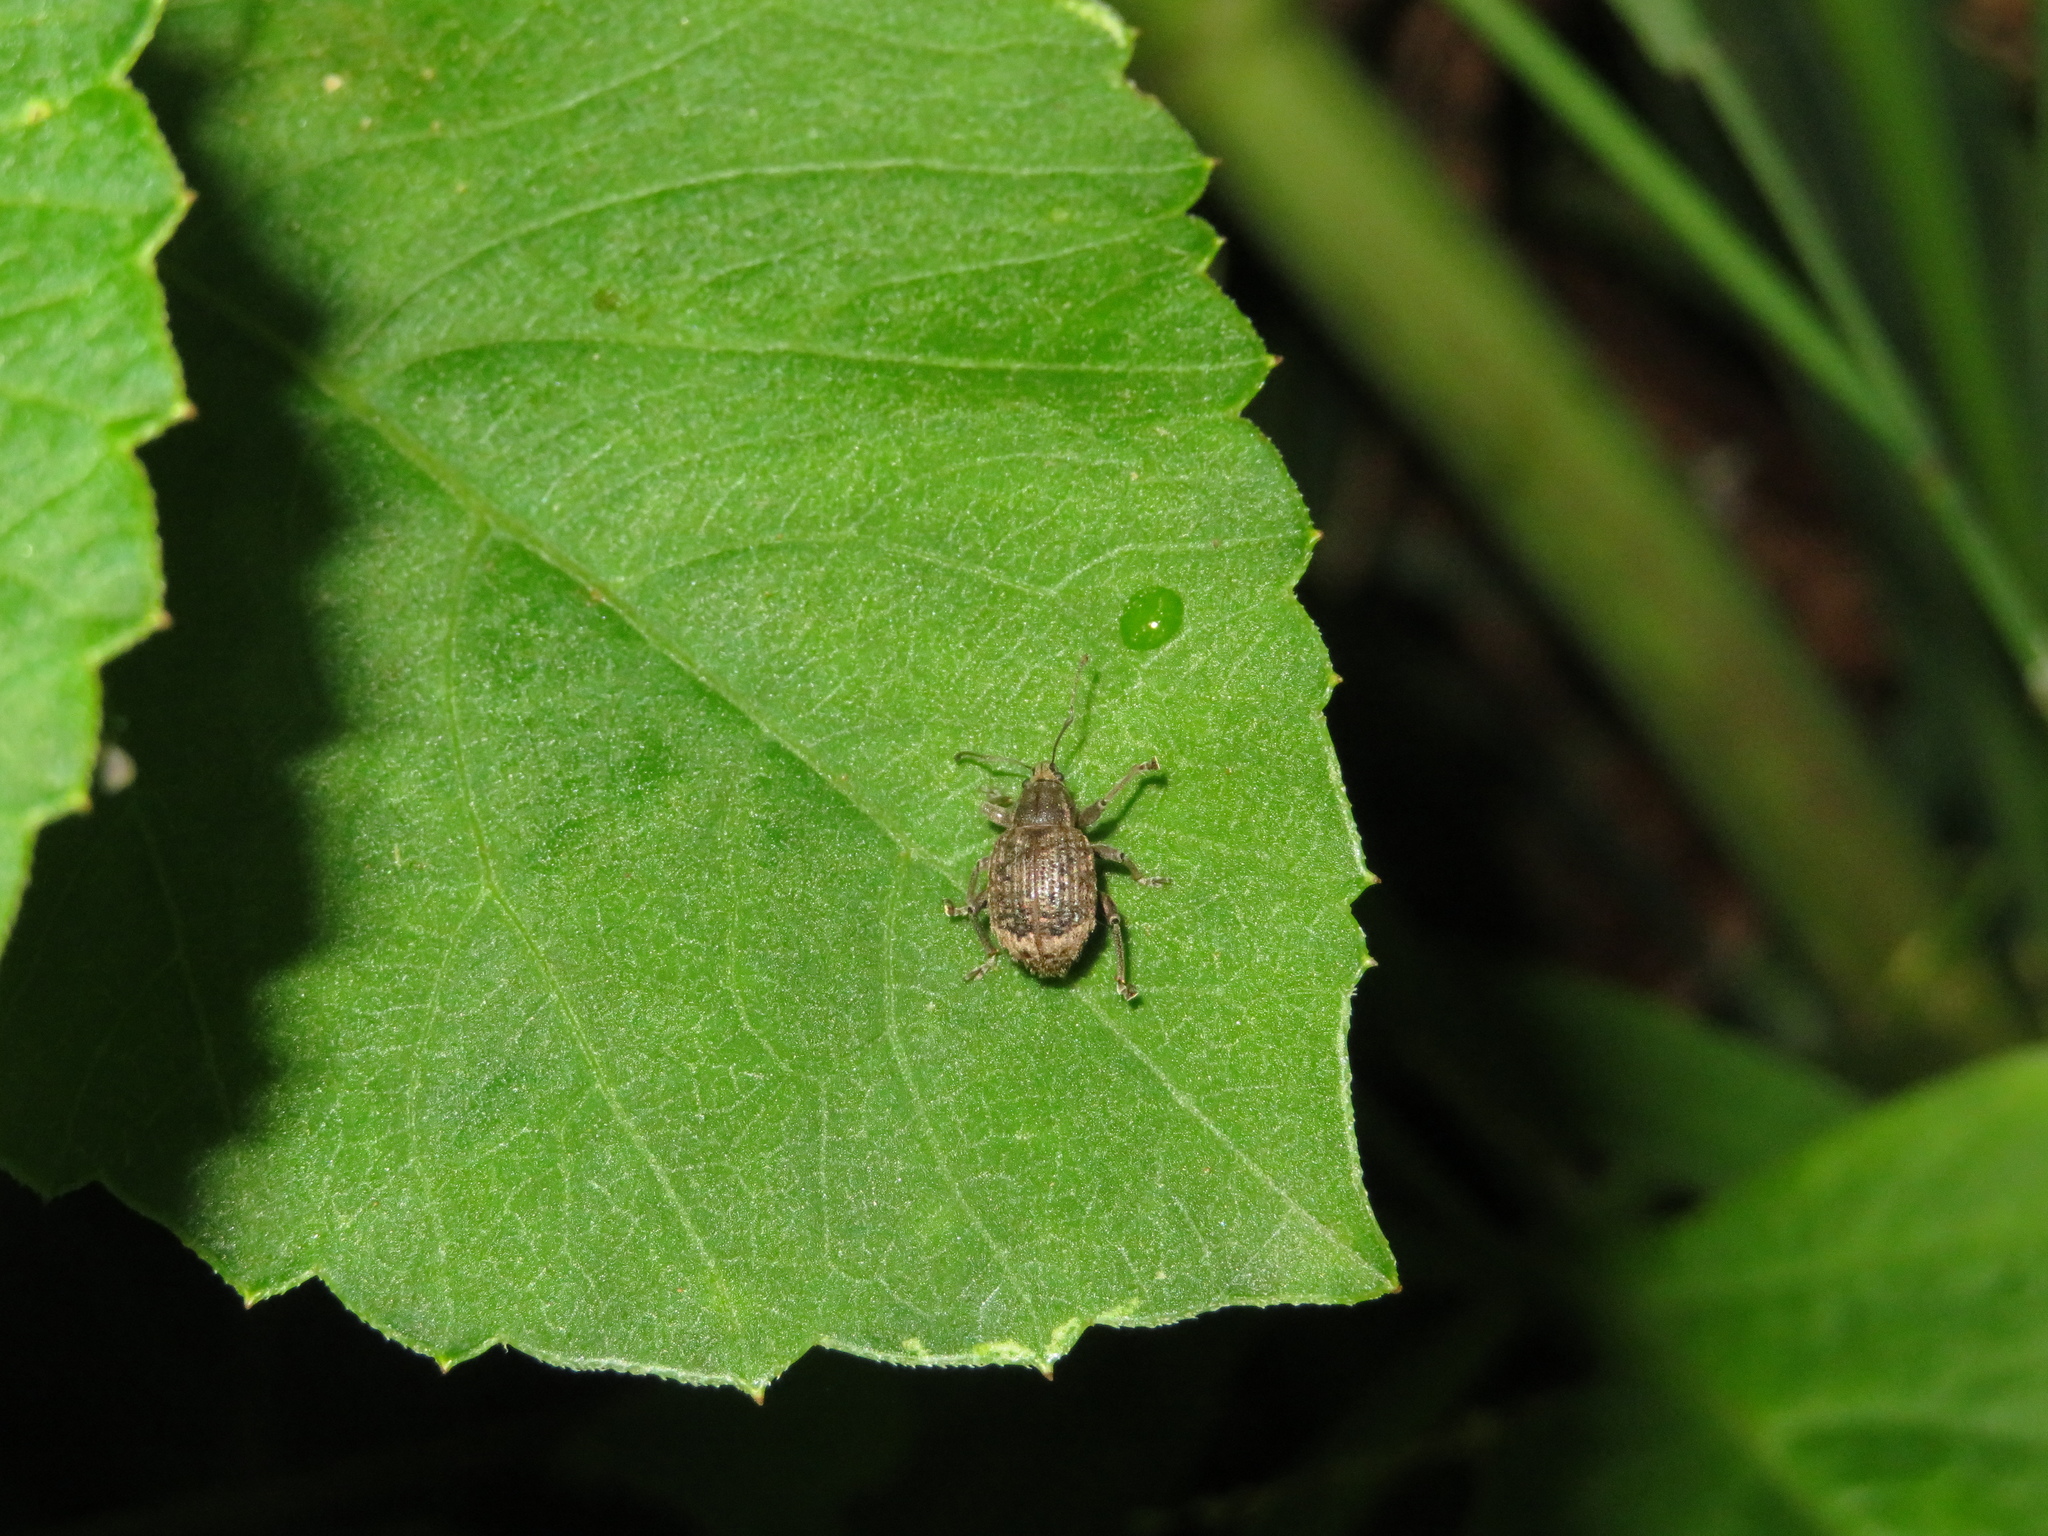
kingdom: Animalia
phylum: Arthropoda
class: Insecta
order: Coleoptera
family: Curculionidae
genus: Phlyctinus
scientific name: Phlyctinus callosus
